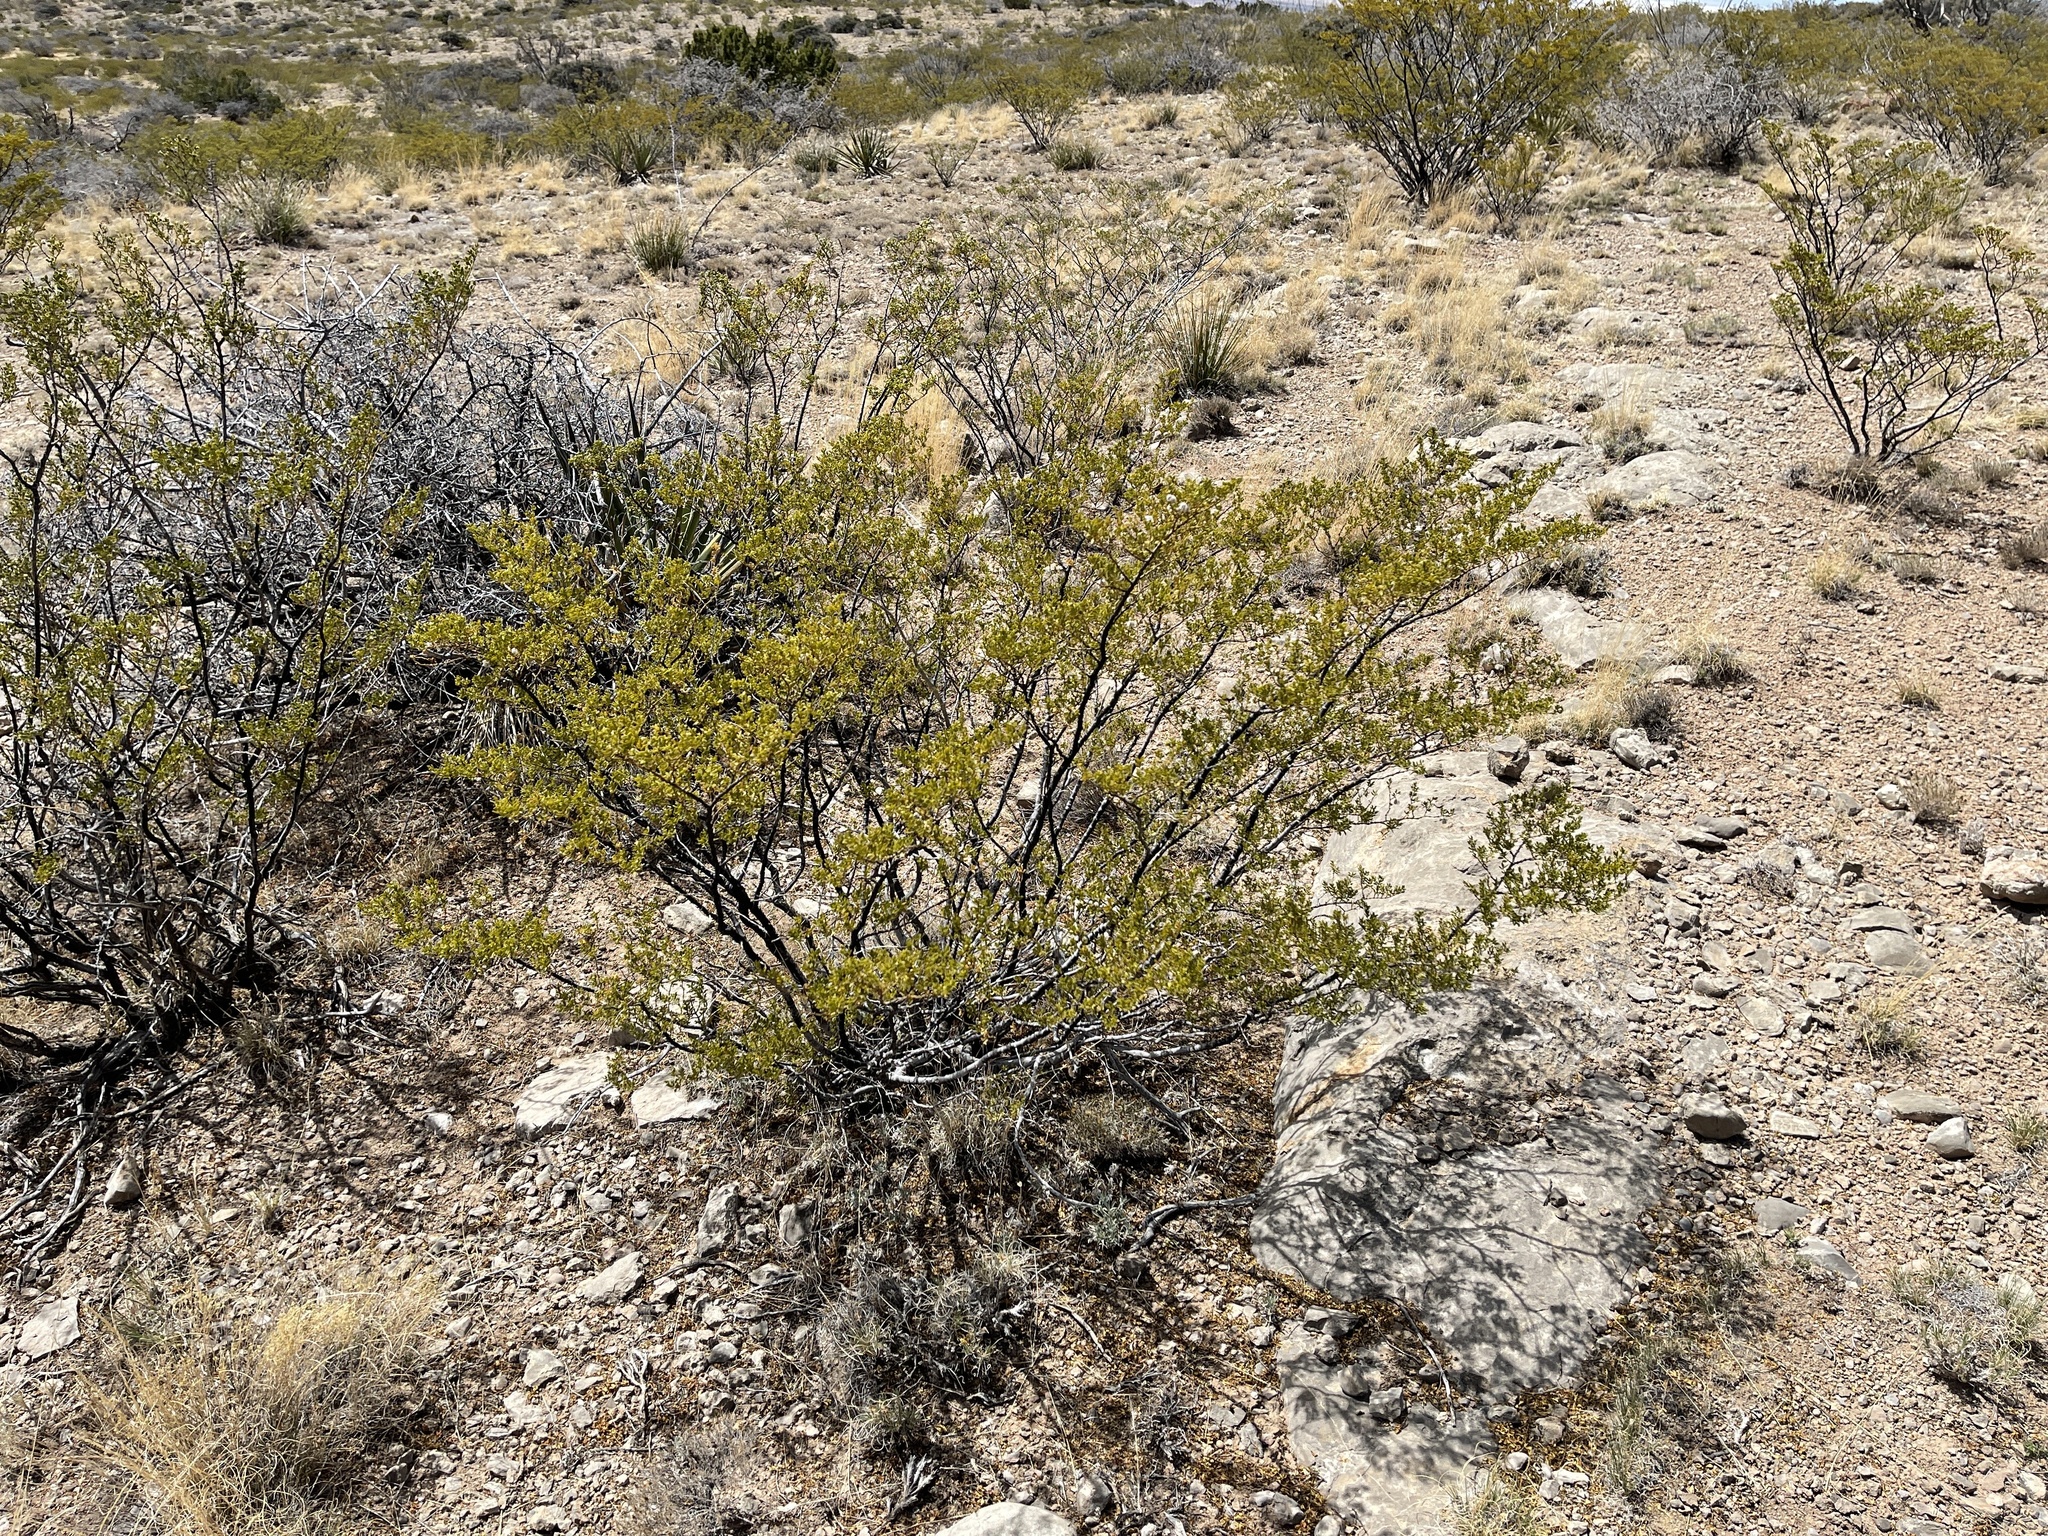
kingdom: Plantae
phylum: Tracheophyta
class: Magnoliopsida
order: Zygophyllales
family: Zygophyllaceae
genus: Larrea
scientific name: Larrea tridentata
